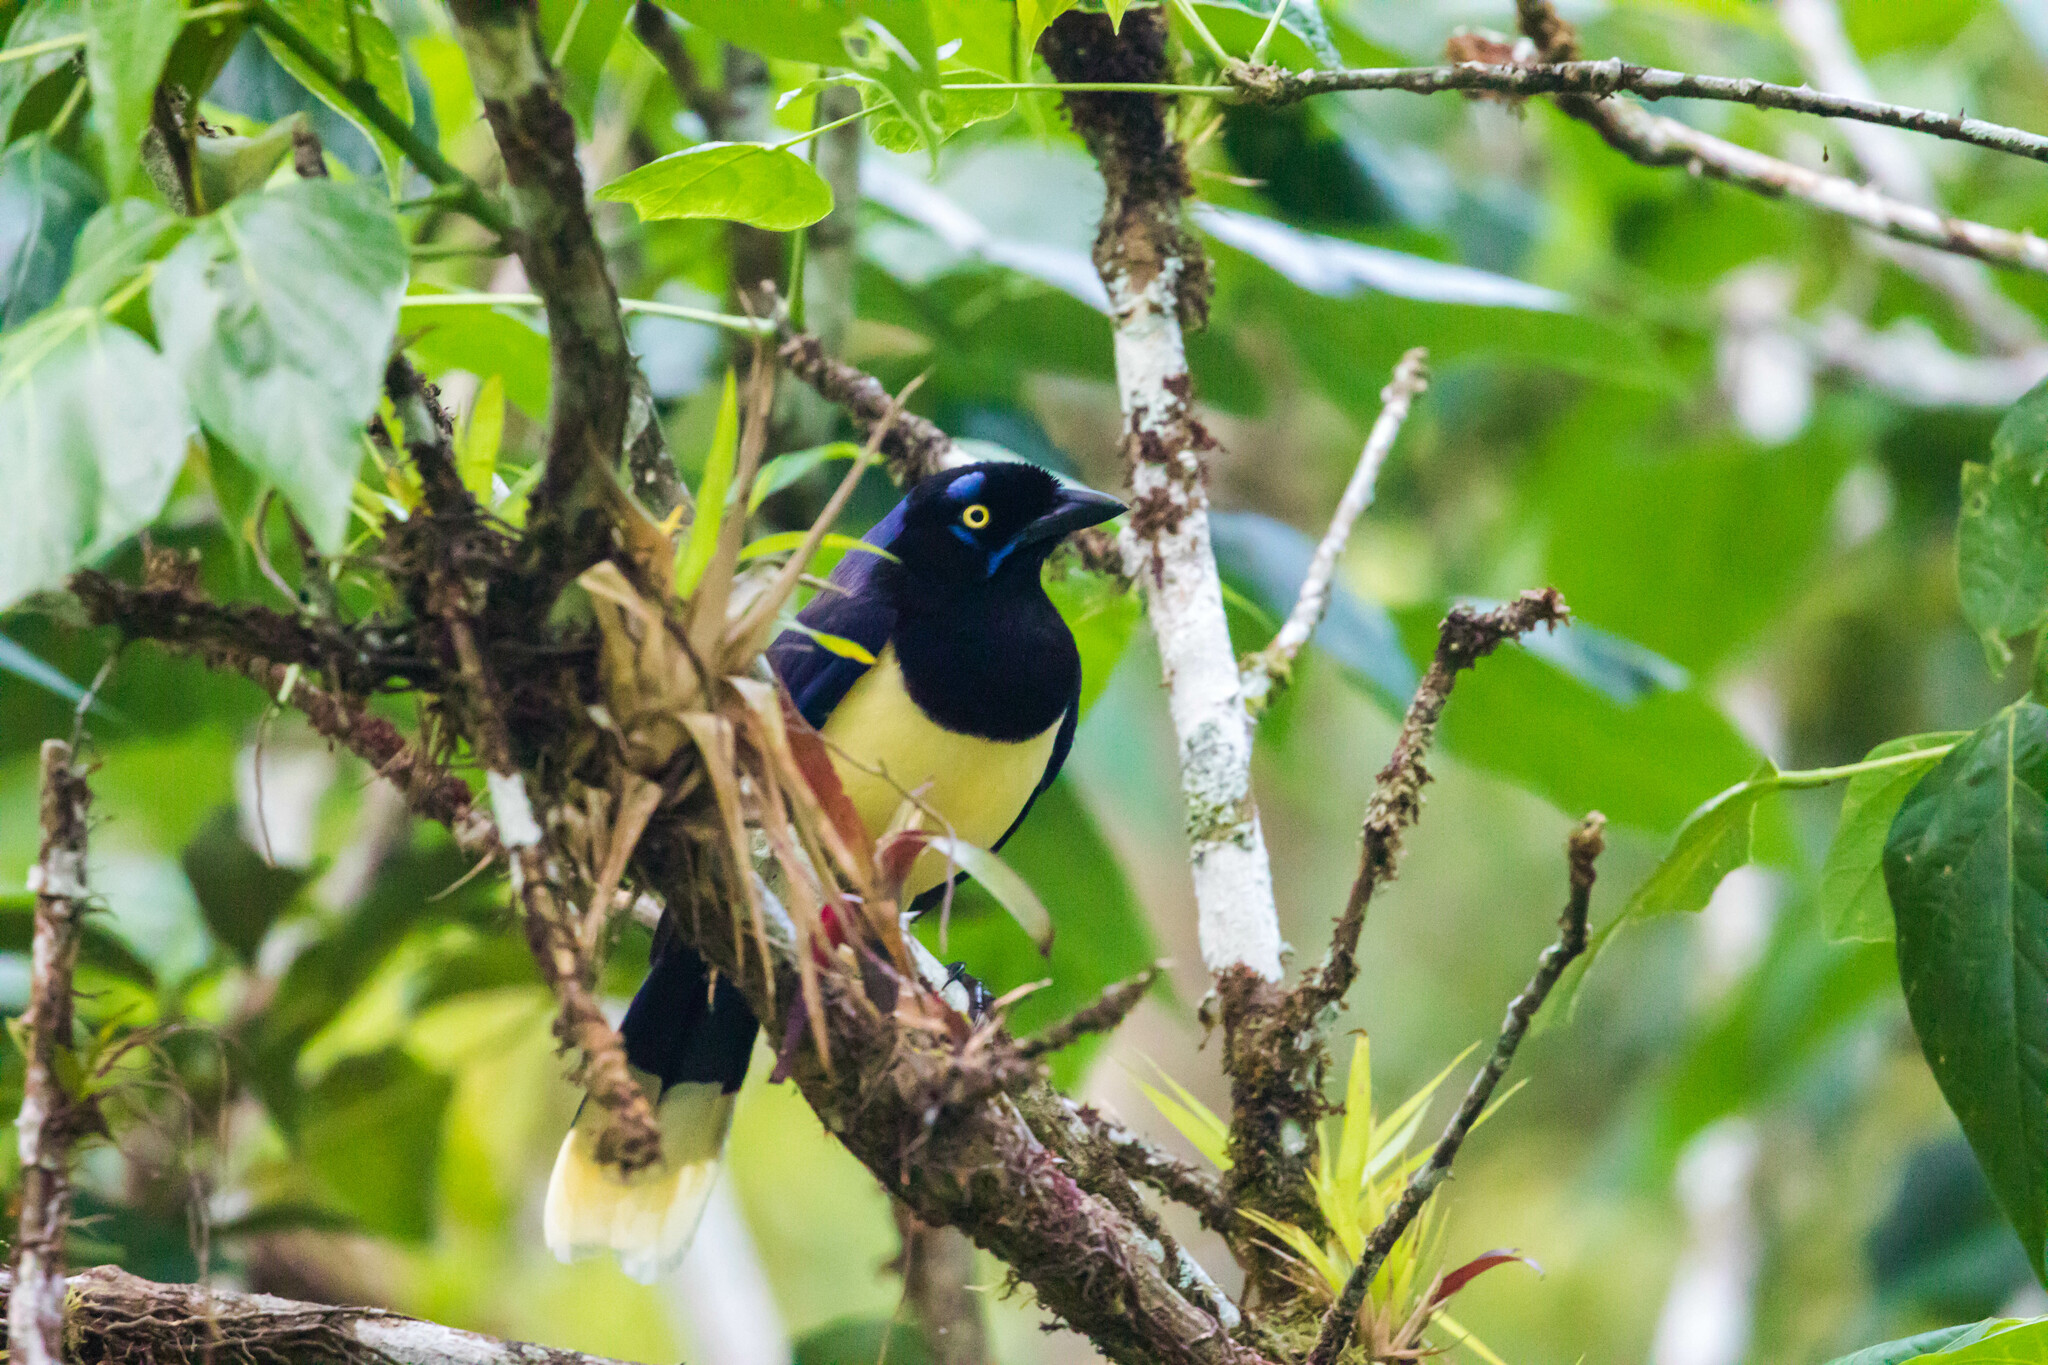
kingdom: Animalia
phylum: Chordata
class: Aves
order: Passeriformes
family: Corvidae
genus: Cyanocorax
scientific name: Cyanocorax affinis
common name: Black-chested jay
